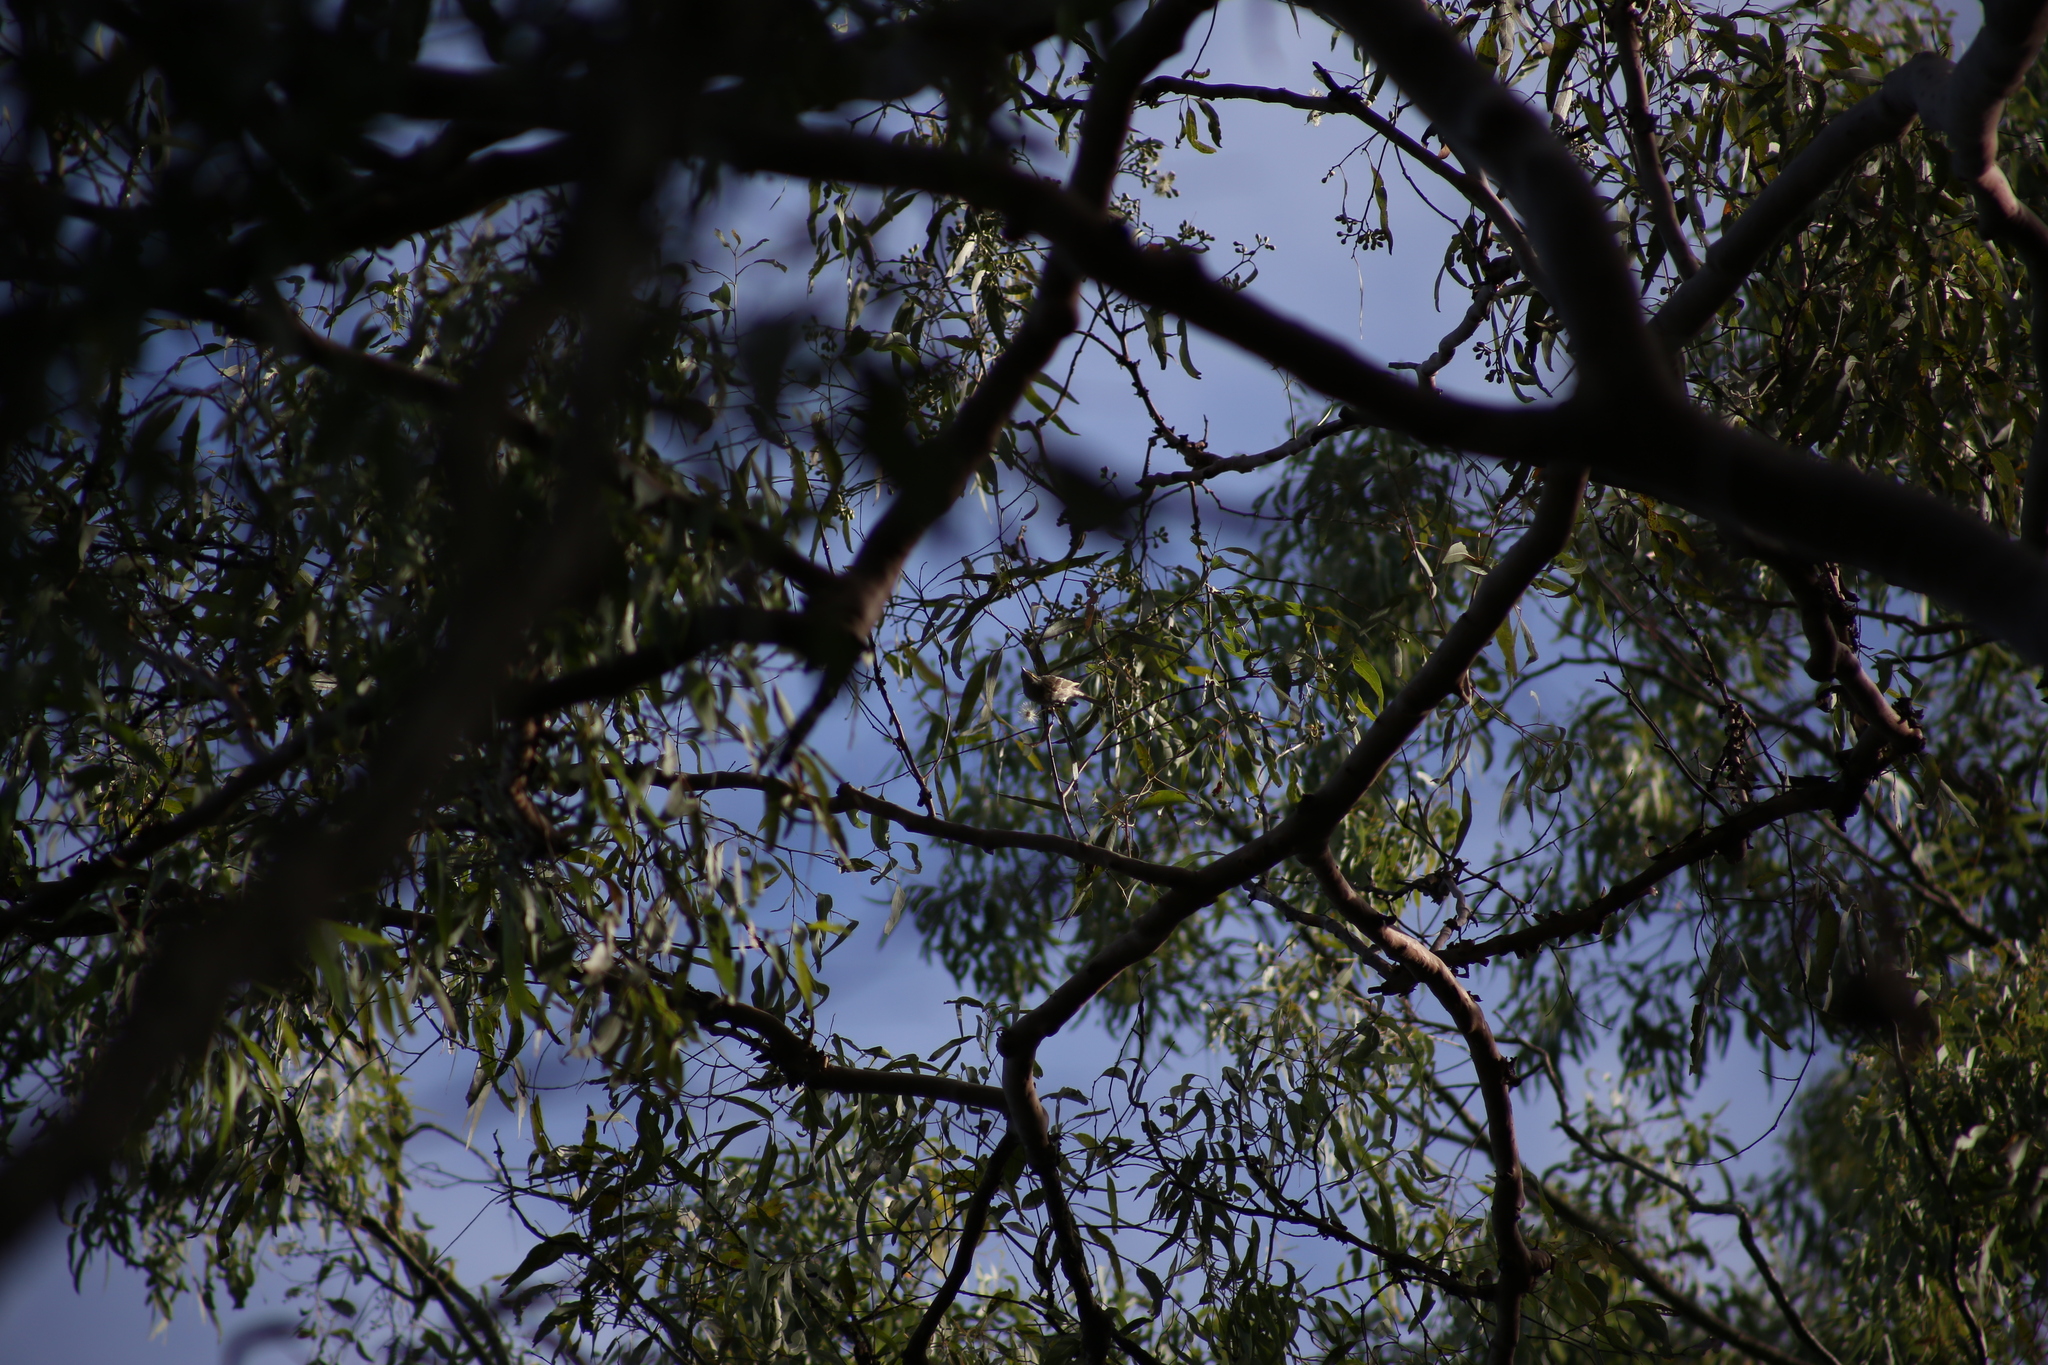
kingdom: Animalia
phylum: Chordata
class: Aves
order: Passeriformes
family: Meliphagidae
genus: Caligavis
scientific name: Caligavis chrysops
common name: Yellow-faced honeyeater
